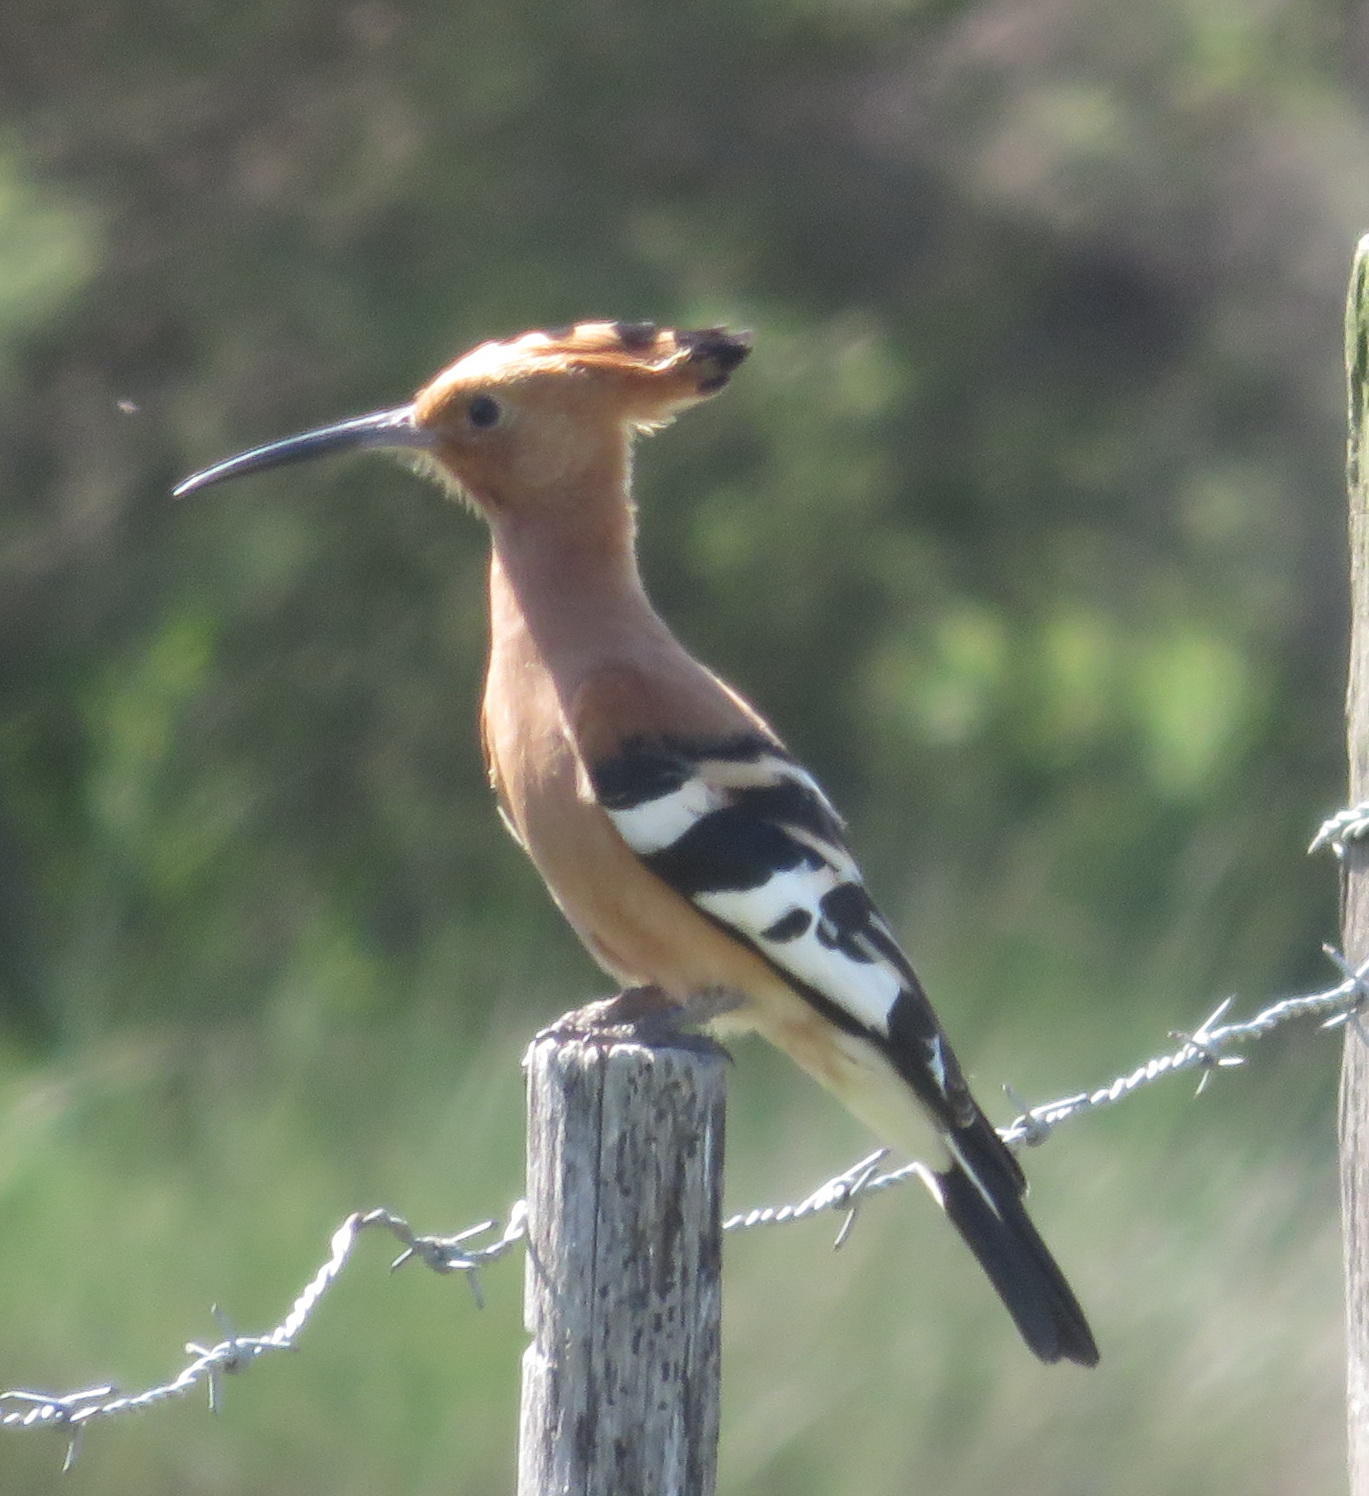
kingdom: Animalia
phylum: Chordata
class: Aves
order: Bucerotiformes
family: Upupidae
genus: Upupa
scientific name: Upupa africana
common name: African hoopoe
